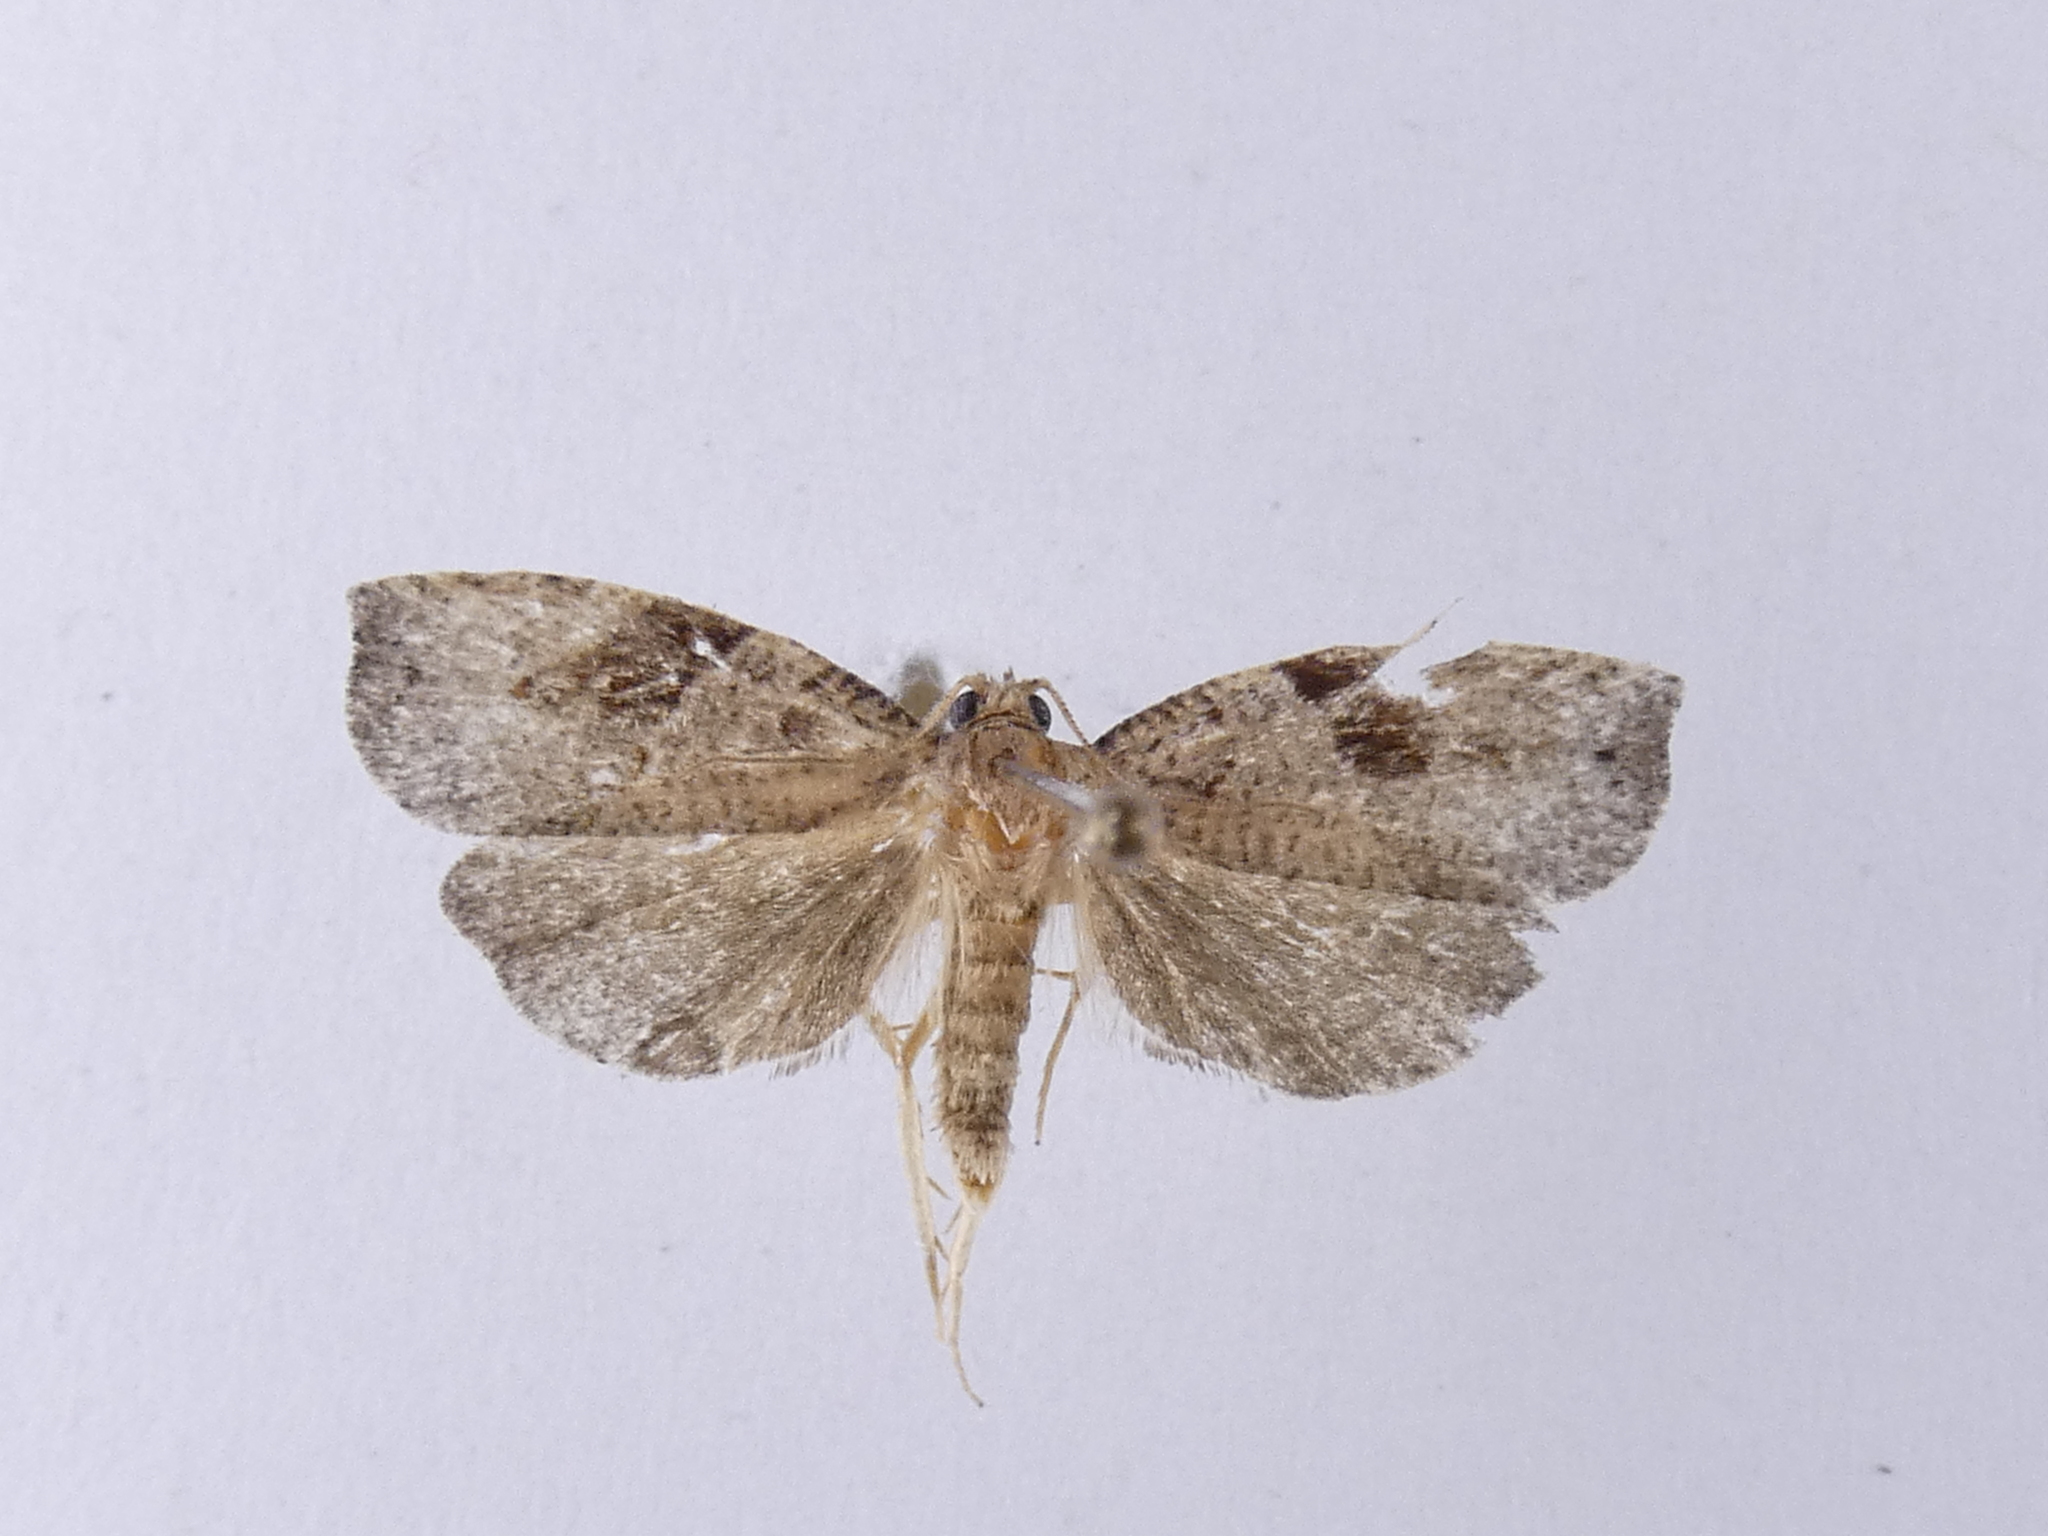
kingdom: Animalia
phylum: Arthropoda
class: Insecta
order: Lepidoptera
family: Tortricidae
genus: Apoctena
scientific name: Apoctena orthropis
